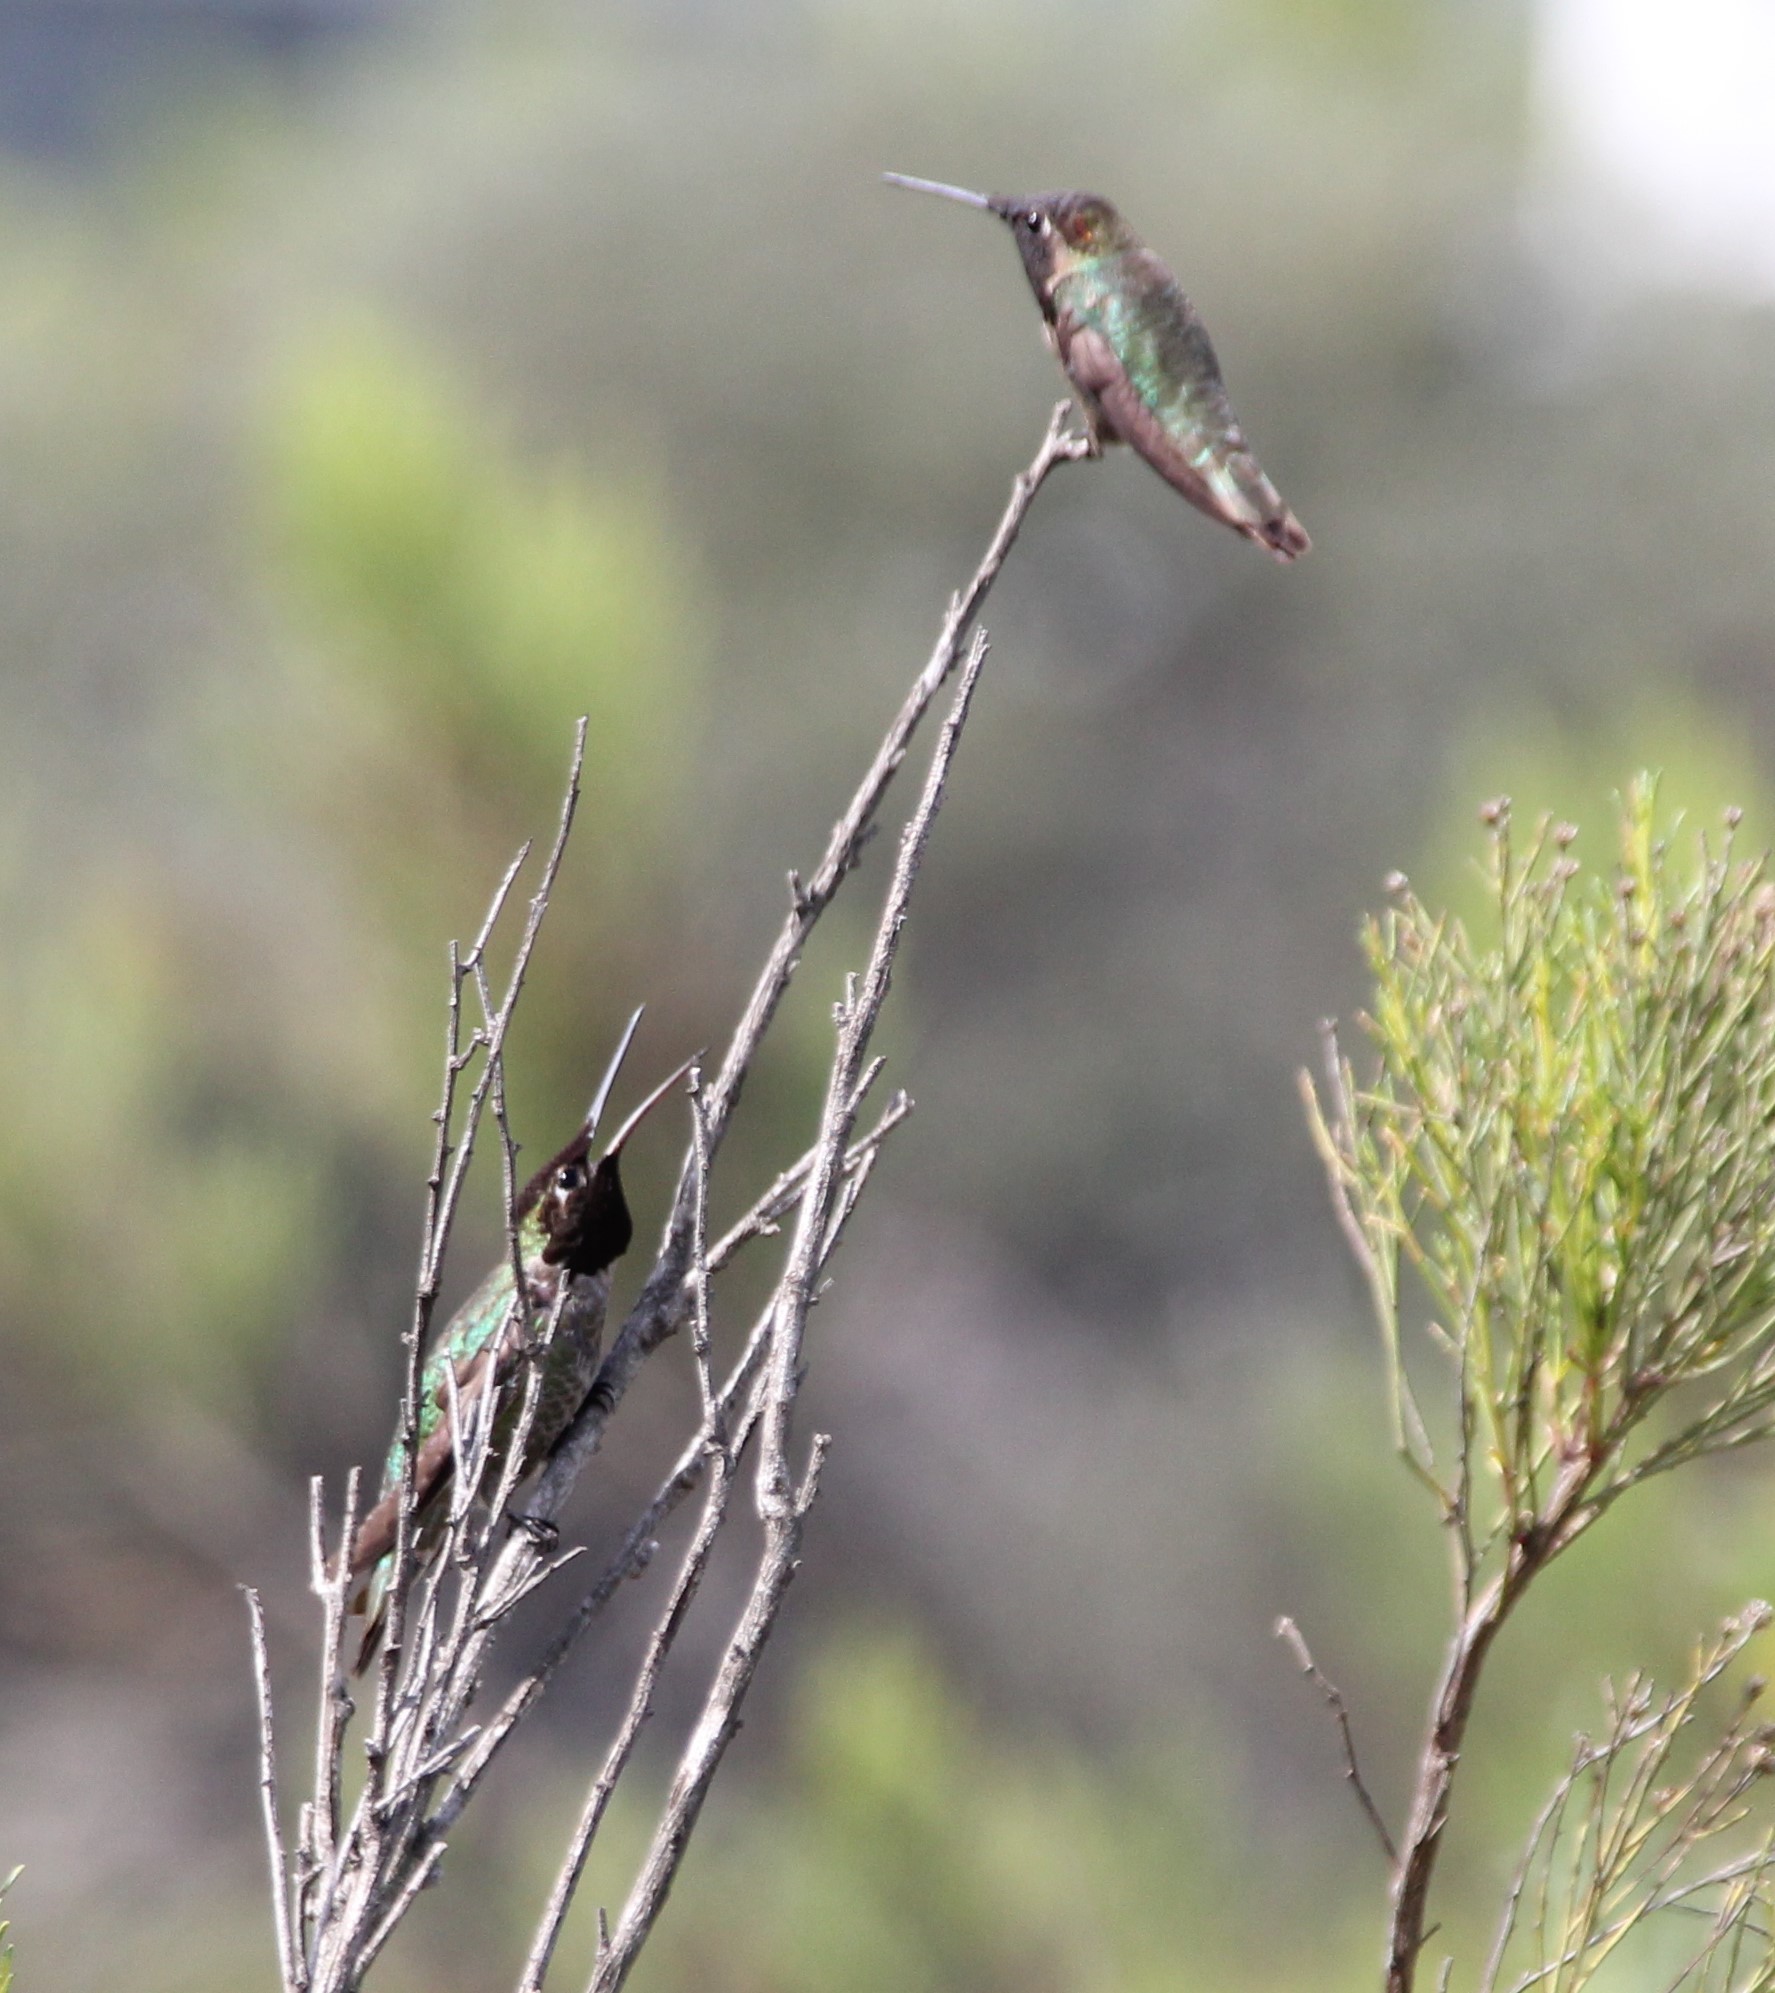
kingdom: Animalia
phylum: Chordata
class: Aves
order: Apodiformes
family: Trochilidae
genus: Calypte
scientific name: Calypte anna
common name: Anna's hummingbird
